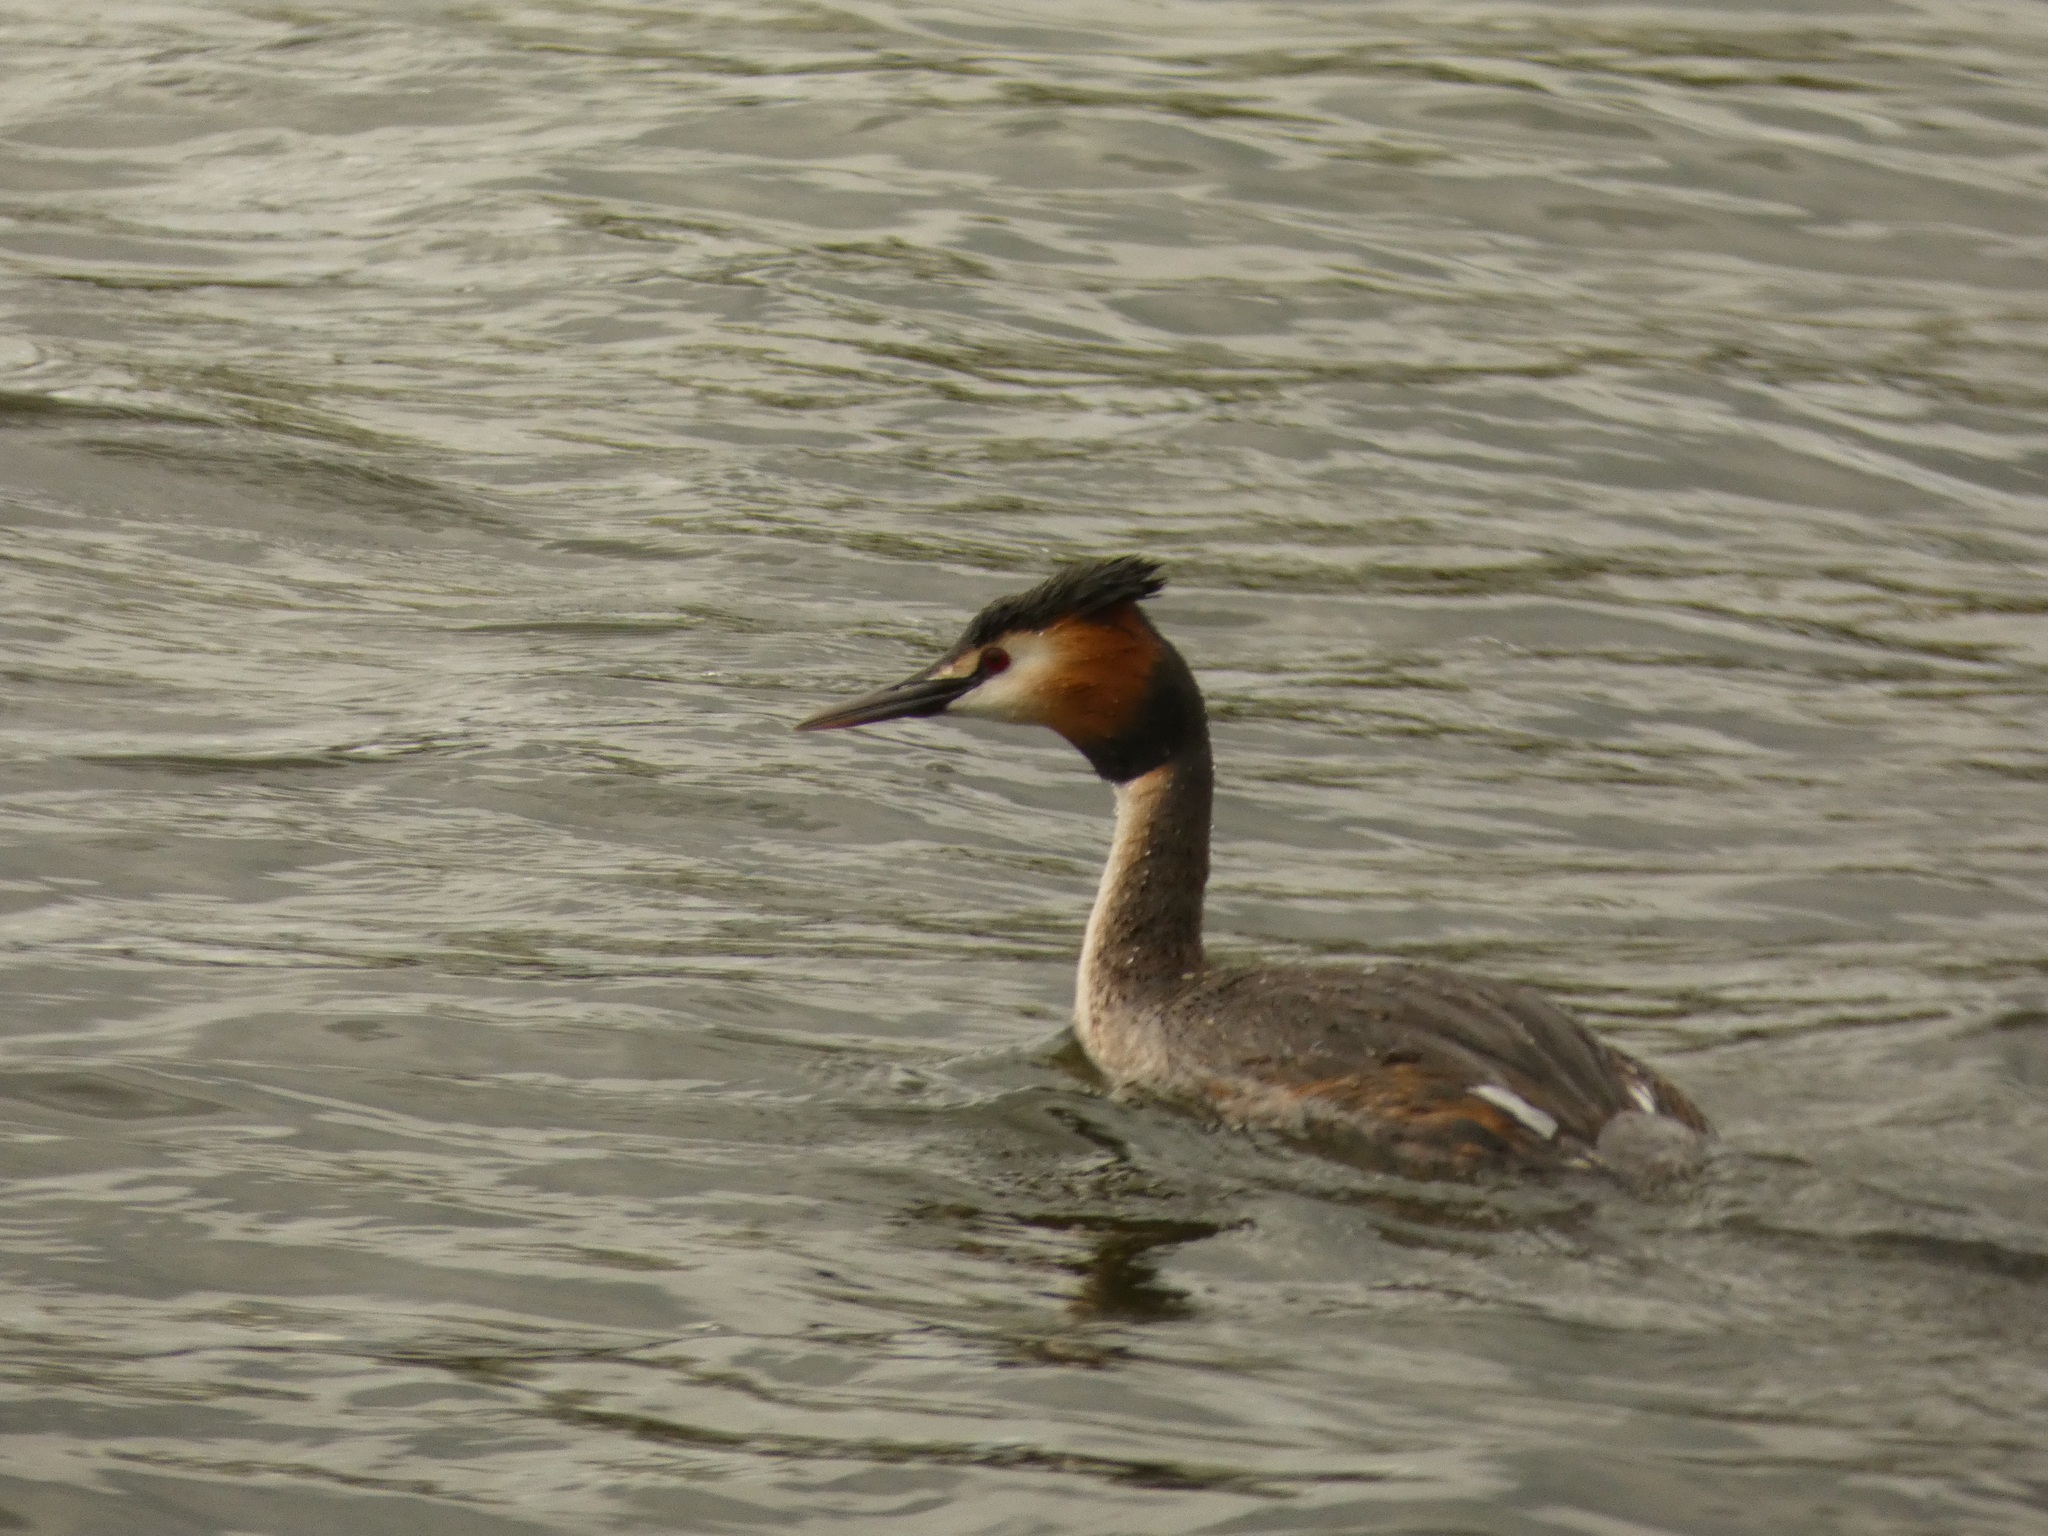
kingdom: Animalia
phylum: Chordata
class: Aves
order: Podicipediformes
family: Podicipedidae
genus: Podiceps
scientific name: Podiceps cristatus
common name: Great crested grebe
